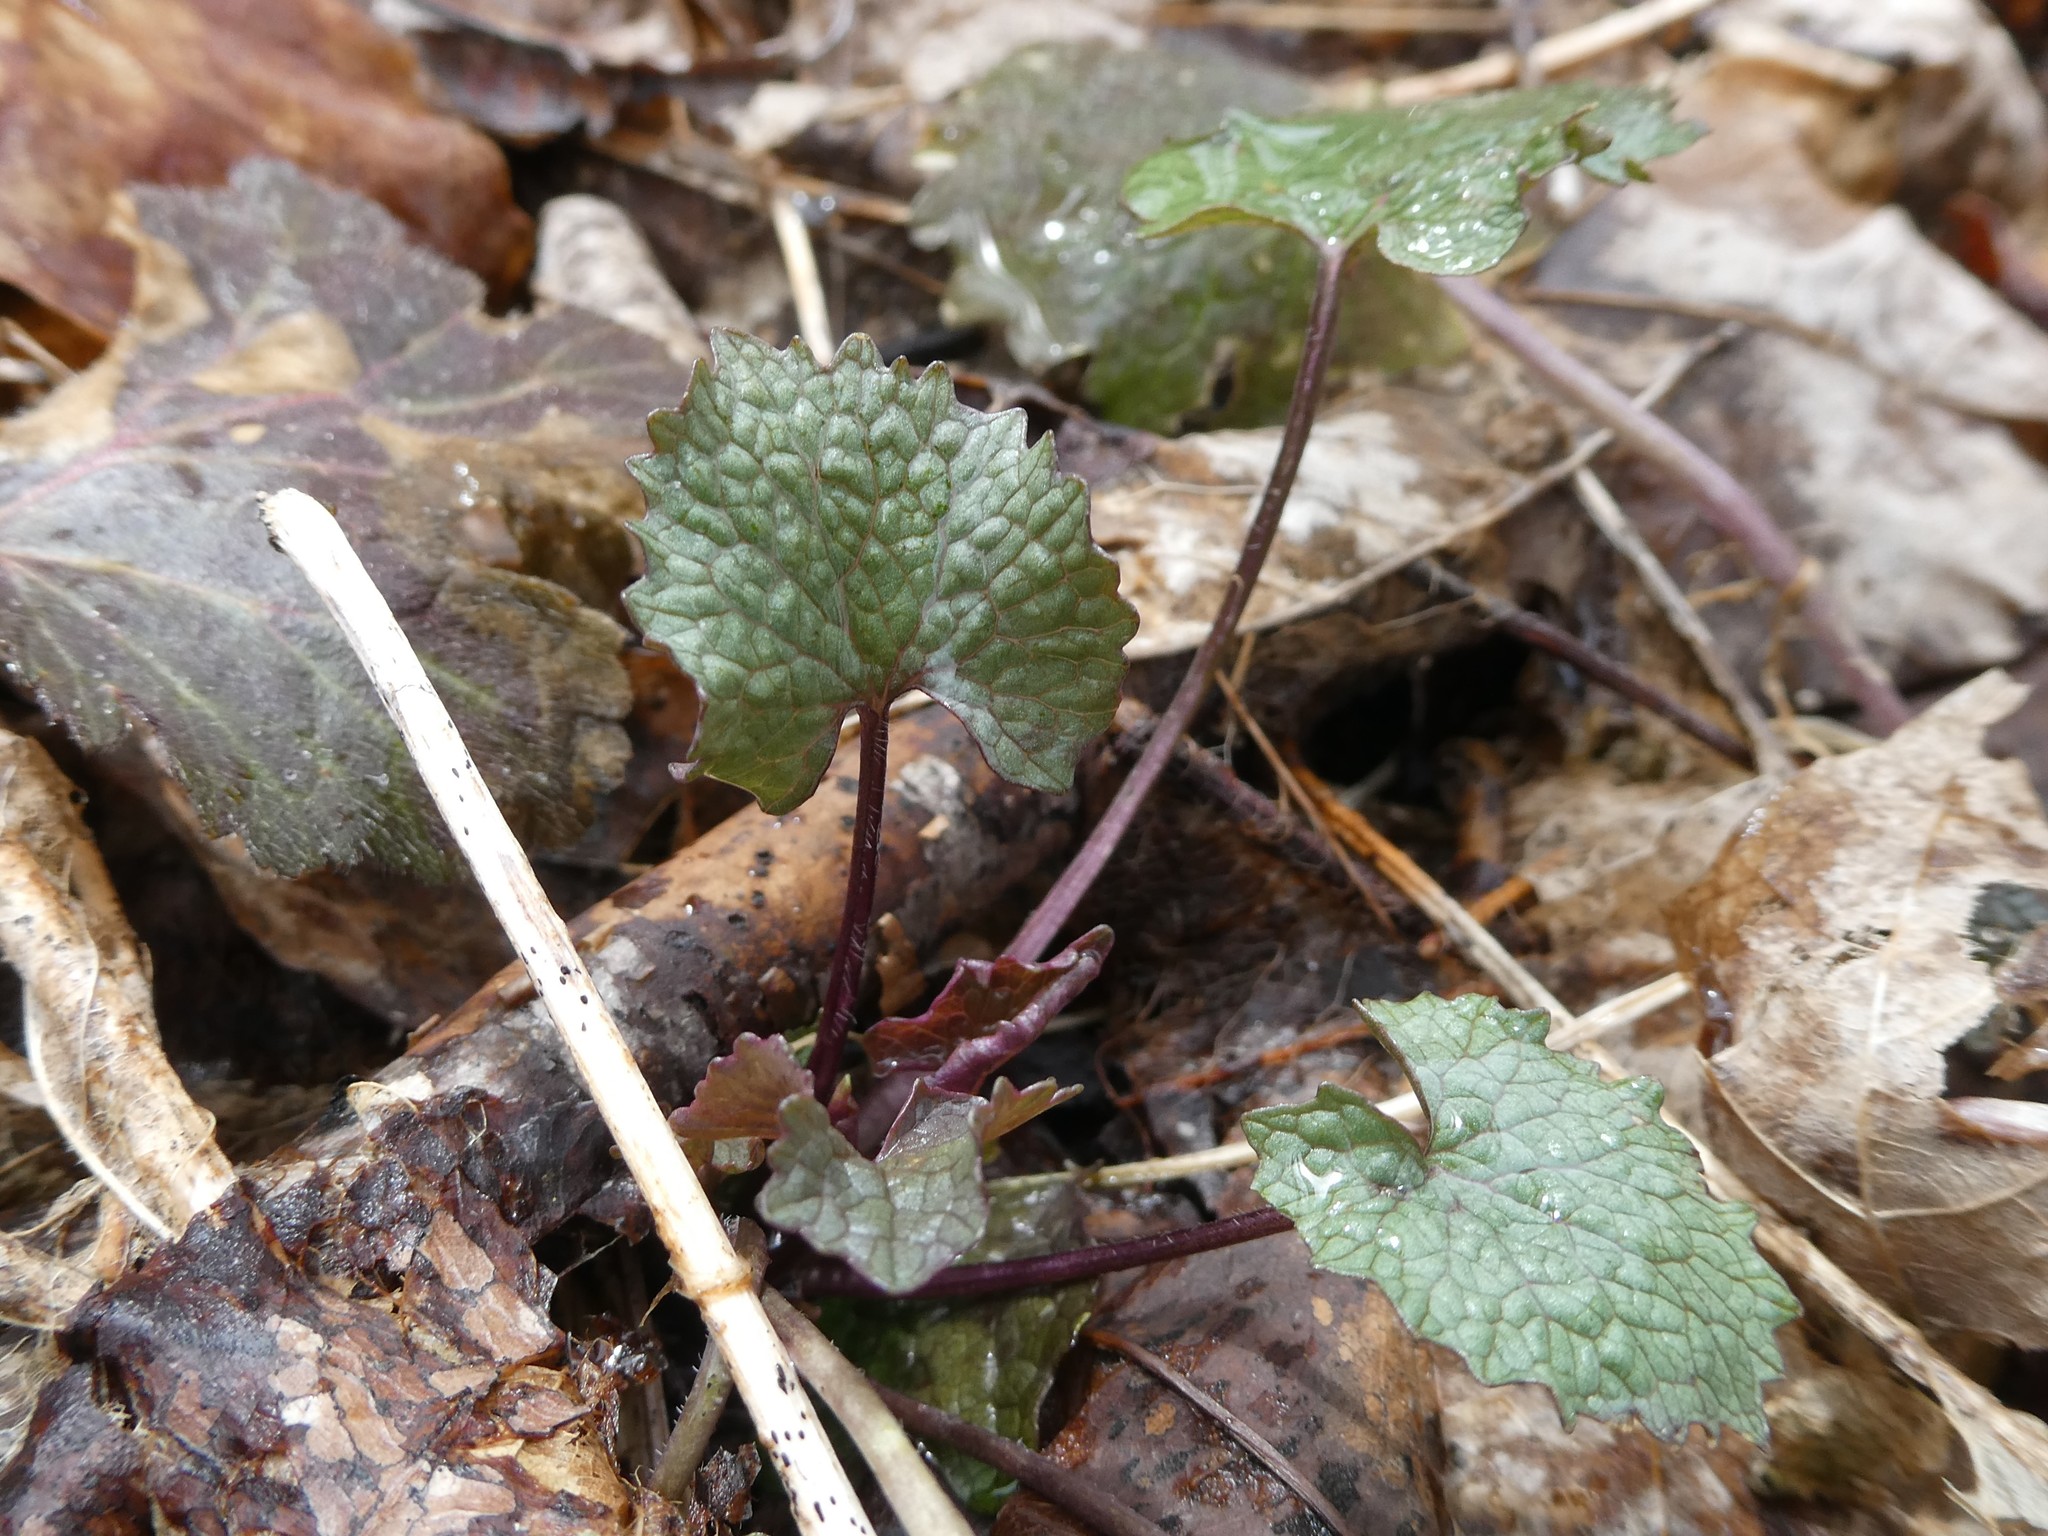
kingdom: Plantae
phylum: Tracheophyta
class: Magnoliopsida
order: Brassicales
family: Brassicaceae
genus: Alliaria
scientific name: Alliaria petiolata
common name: Garlic mustard
